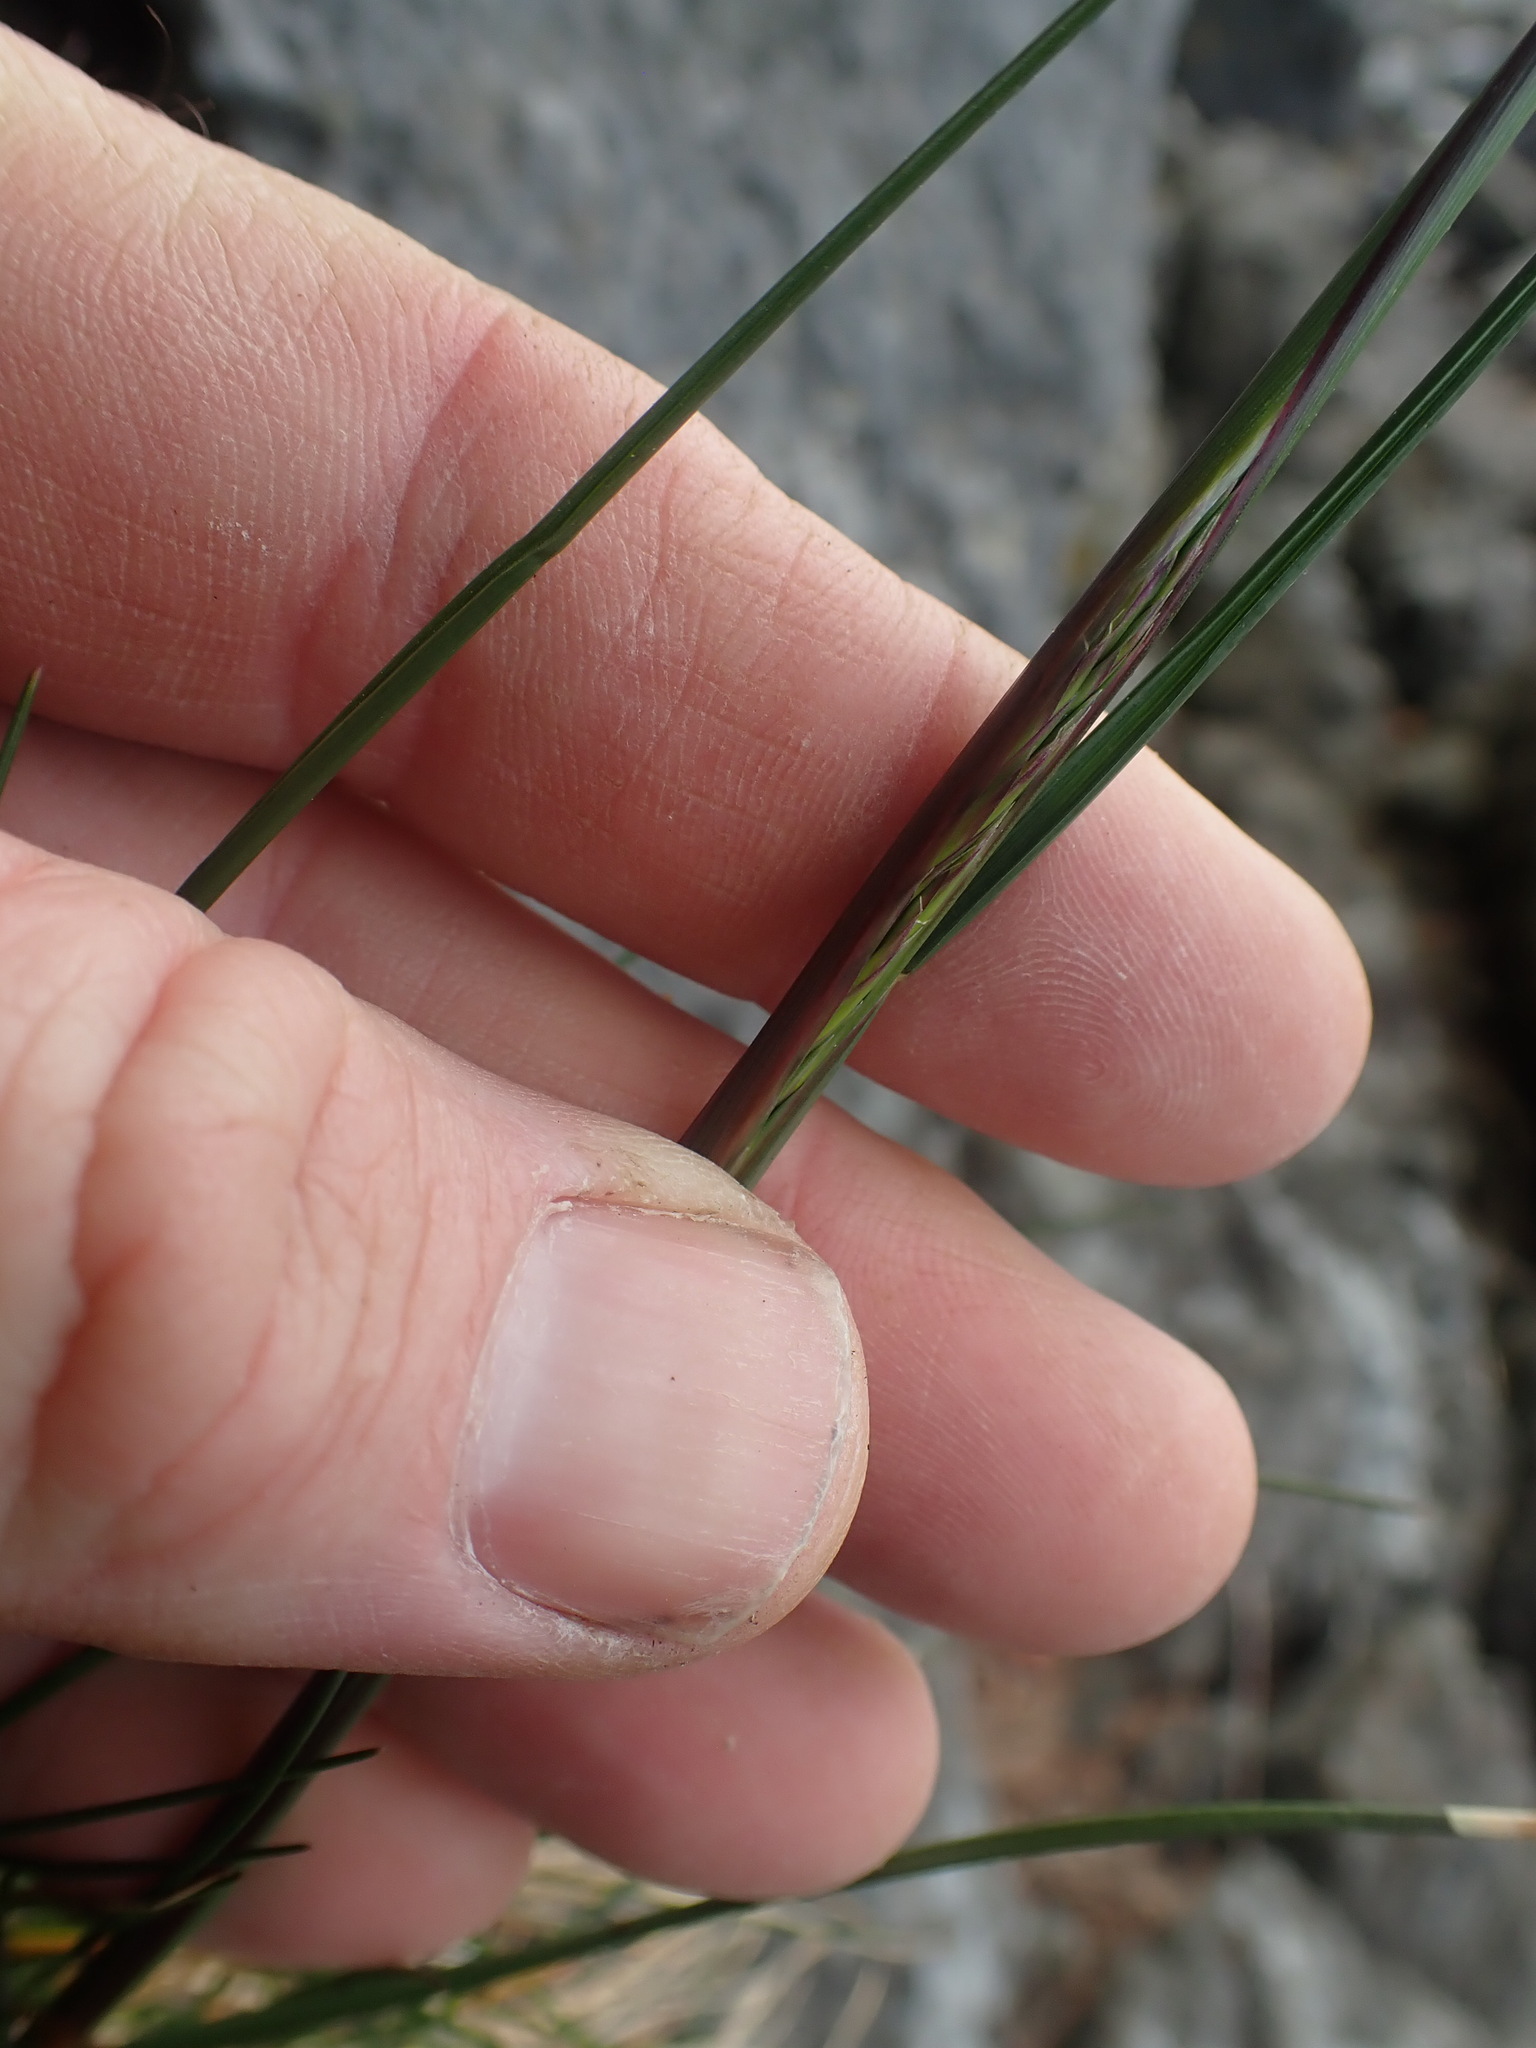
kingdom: Plantae
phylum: Tracheophyta
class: Liliopsida
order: Poales
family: Poaceae
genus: Festuca
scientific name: Festuca rubra
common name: Red fescue
